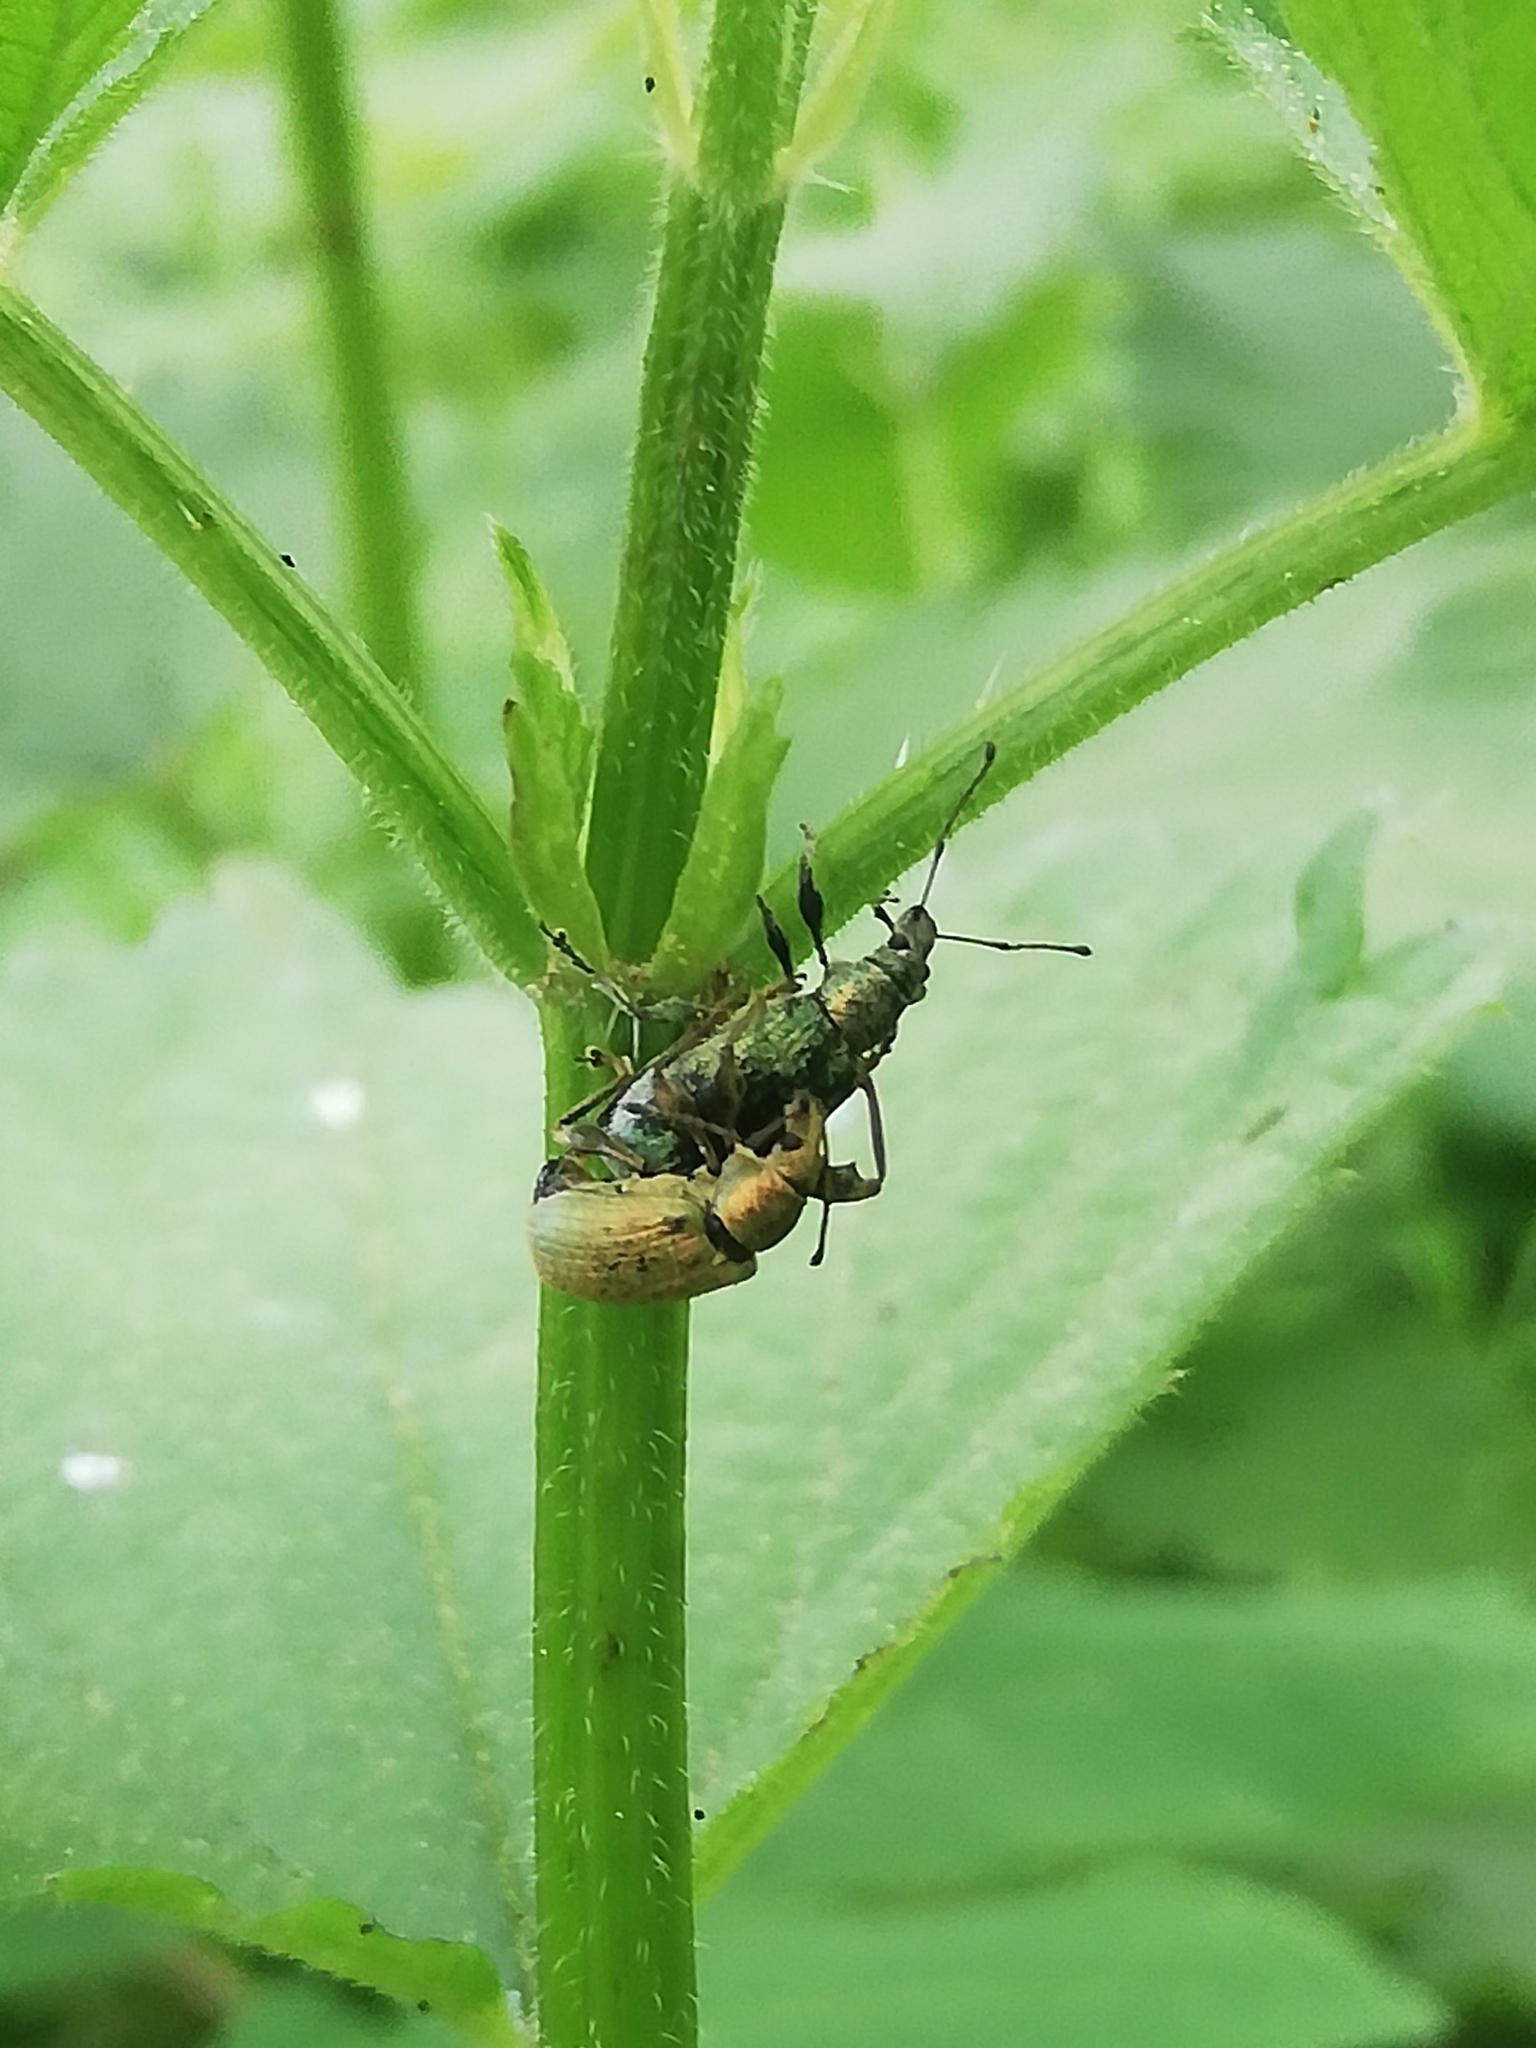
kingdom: Animalia
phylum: Arthropoda
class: Insecta
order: Coleoptera
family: Curculionidae
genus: Phyllobius
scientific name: Phyllobius pomaceus
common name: Green nettle weevil
